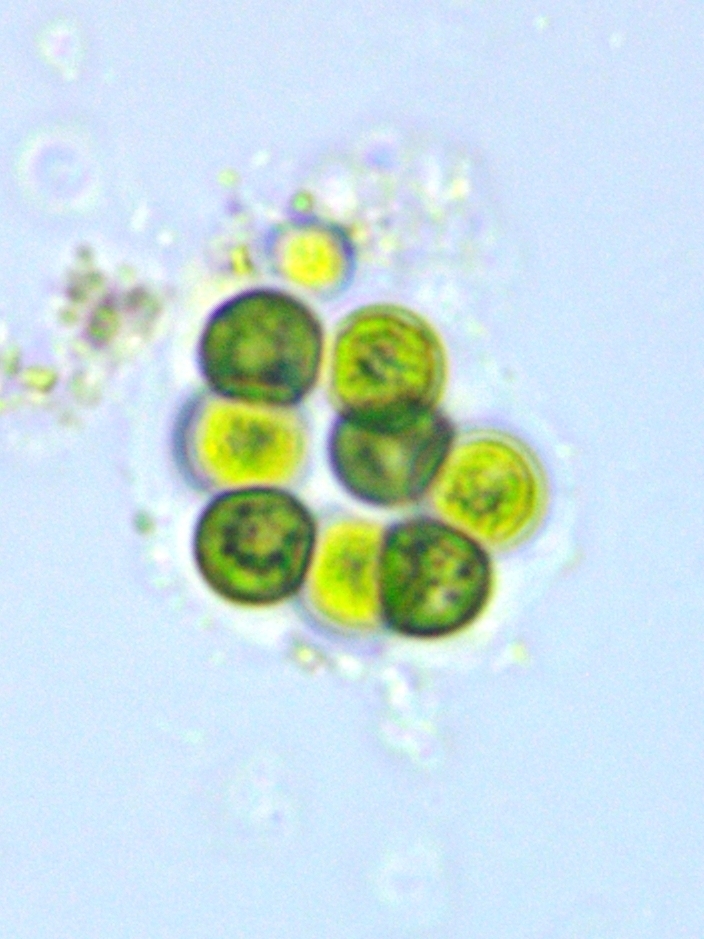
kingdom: Plantae
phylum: Chlorophyta
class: Chlorophyceae
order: Sphaeropleales
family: Radiococcaceae
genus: Coenochloris
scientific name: Coenochloris fottii
